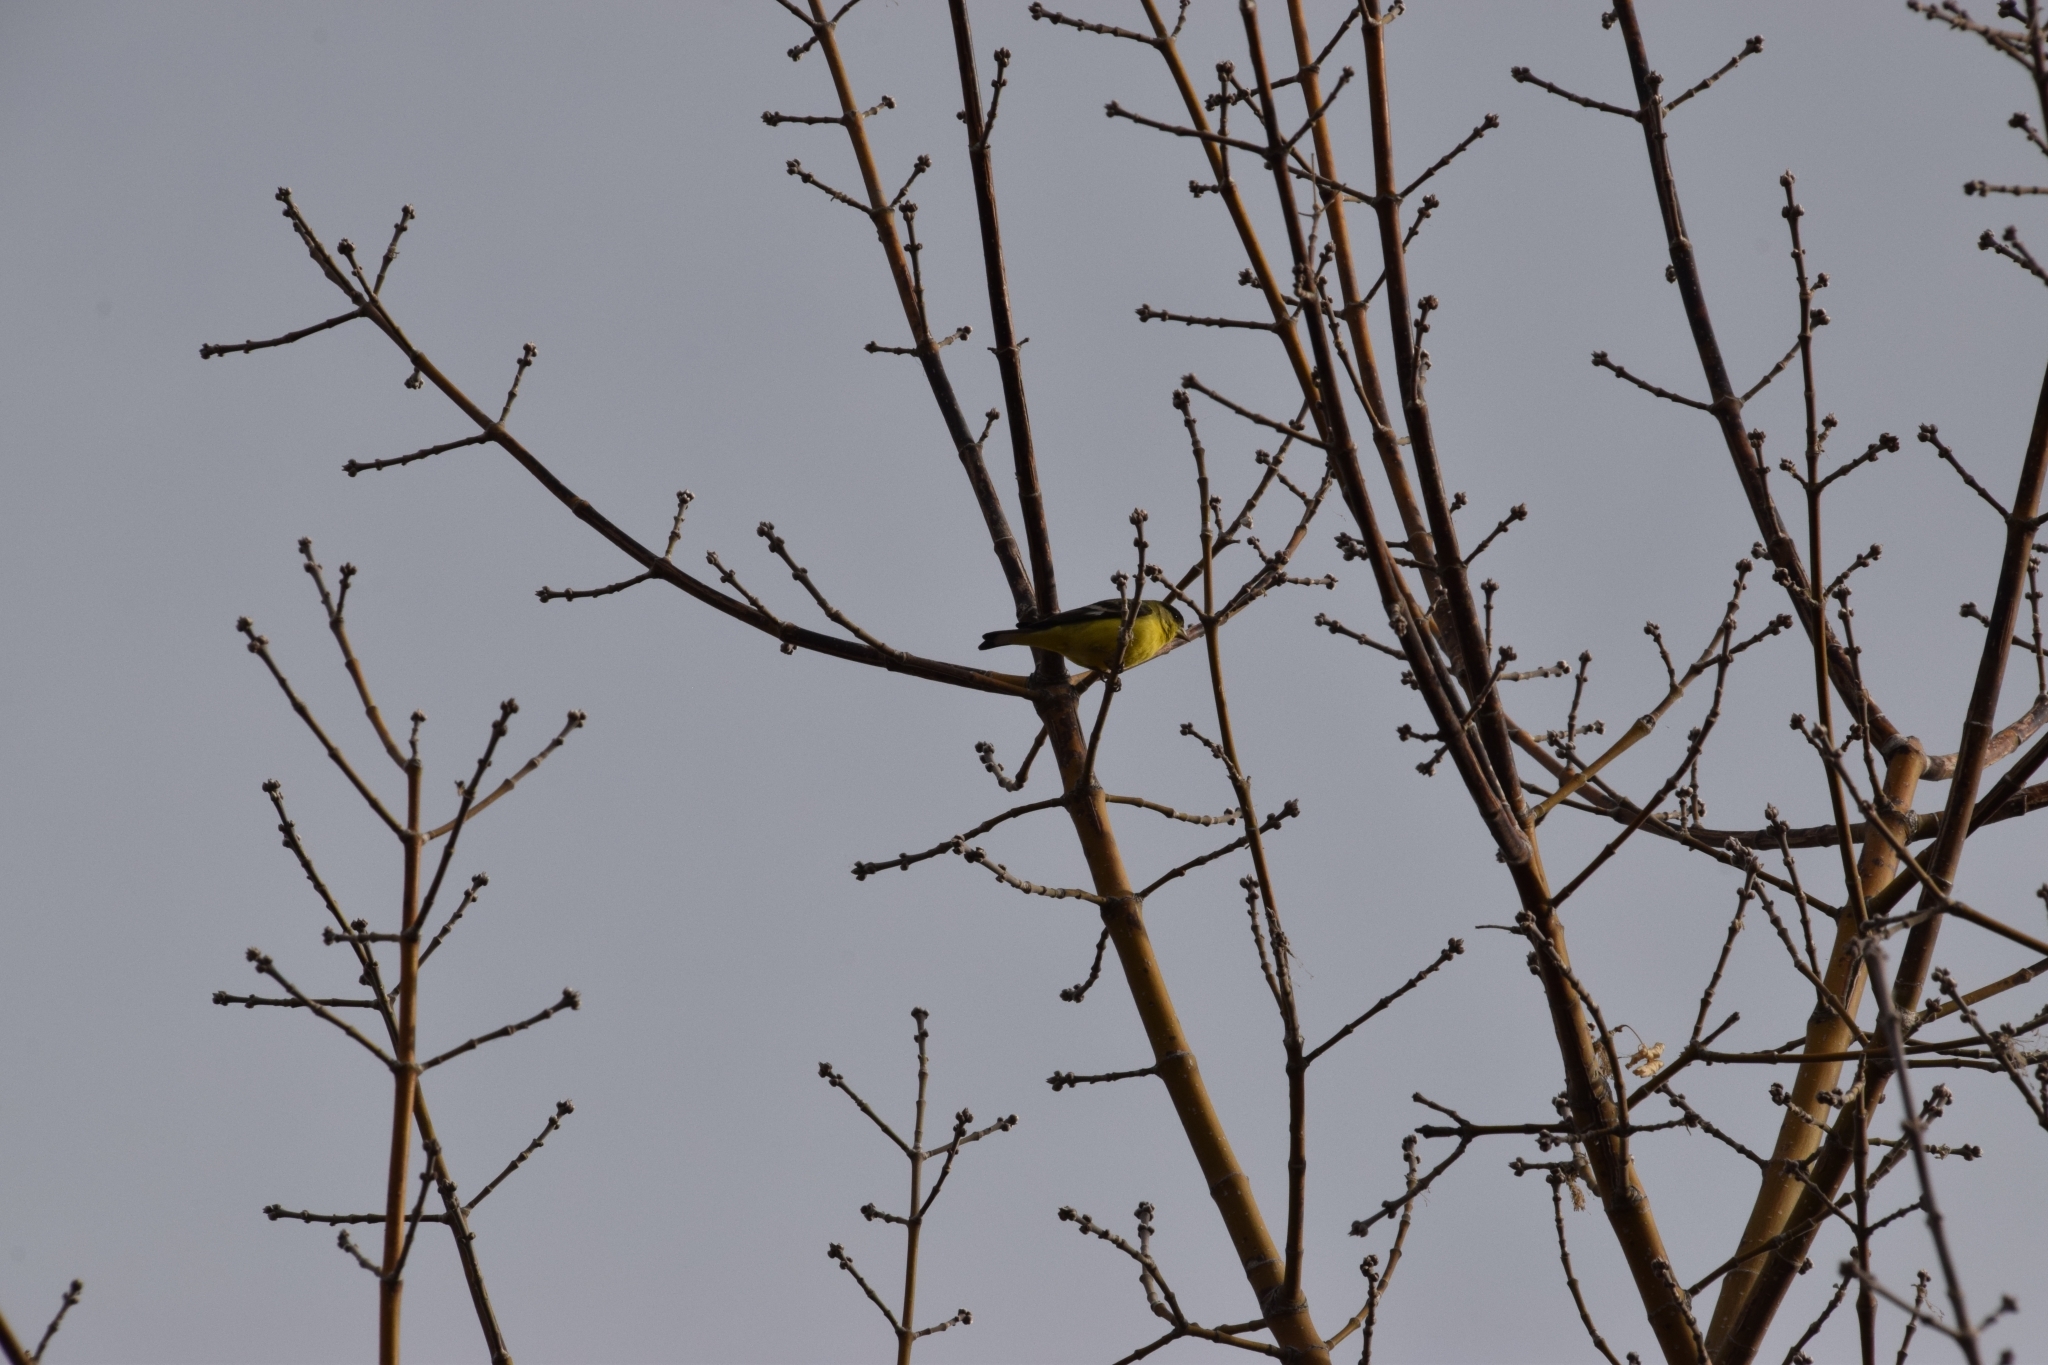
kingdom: Animalia
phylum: Chordata
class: Aves
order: Passeriformes
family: Fringillidae
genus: Spinus
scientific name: Spinus psaltria
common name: Lesser goldfinch
